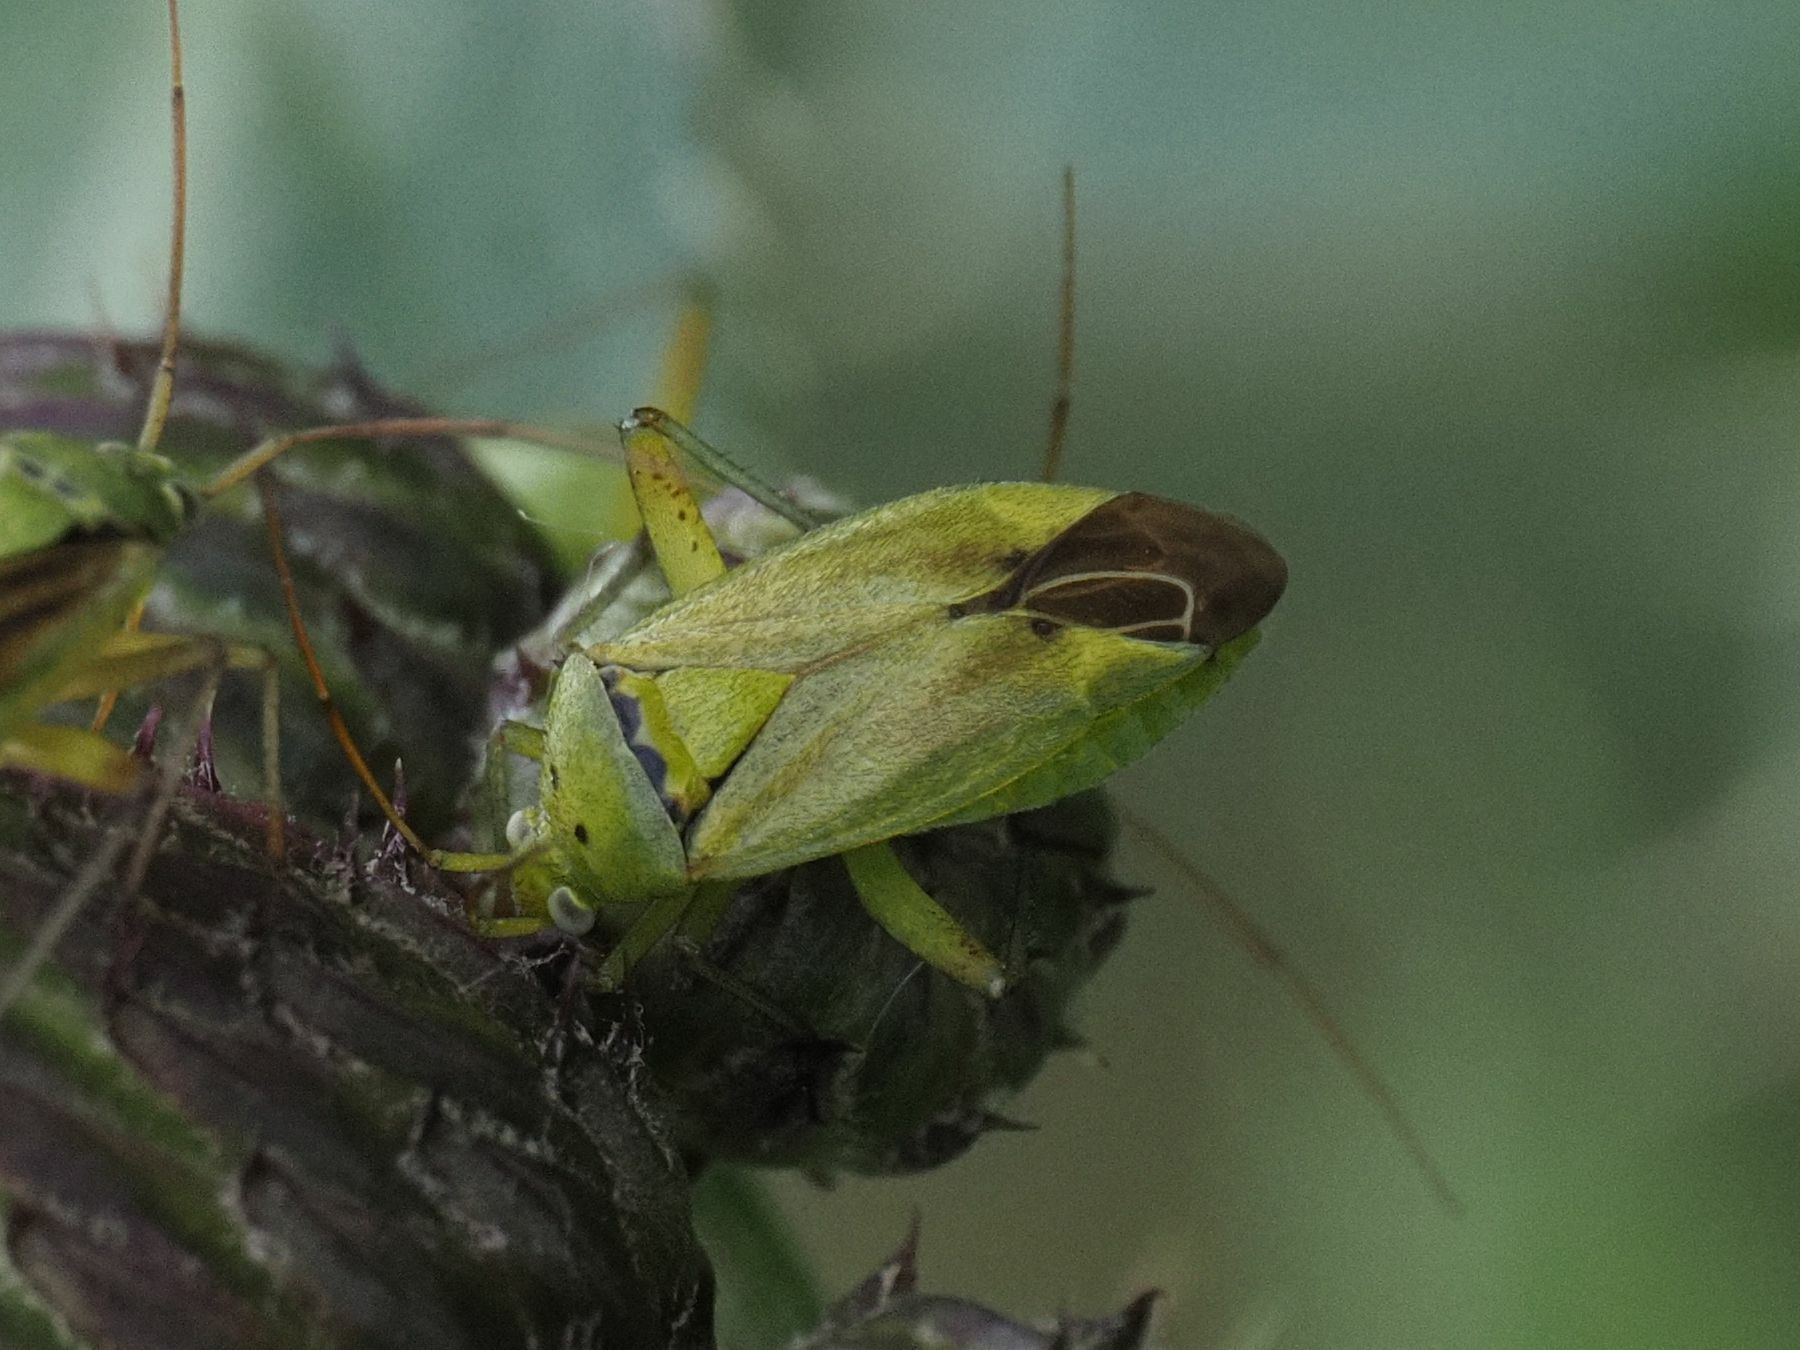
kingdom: Animalia
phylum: Arthropoda
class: Insecta
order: Hemiptera
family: Miridae
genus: Closterotomus
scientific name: Closterotomus norvegicus
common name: Plant bug
